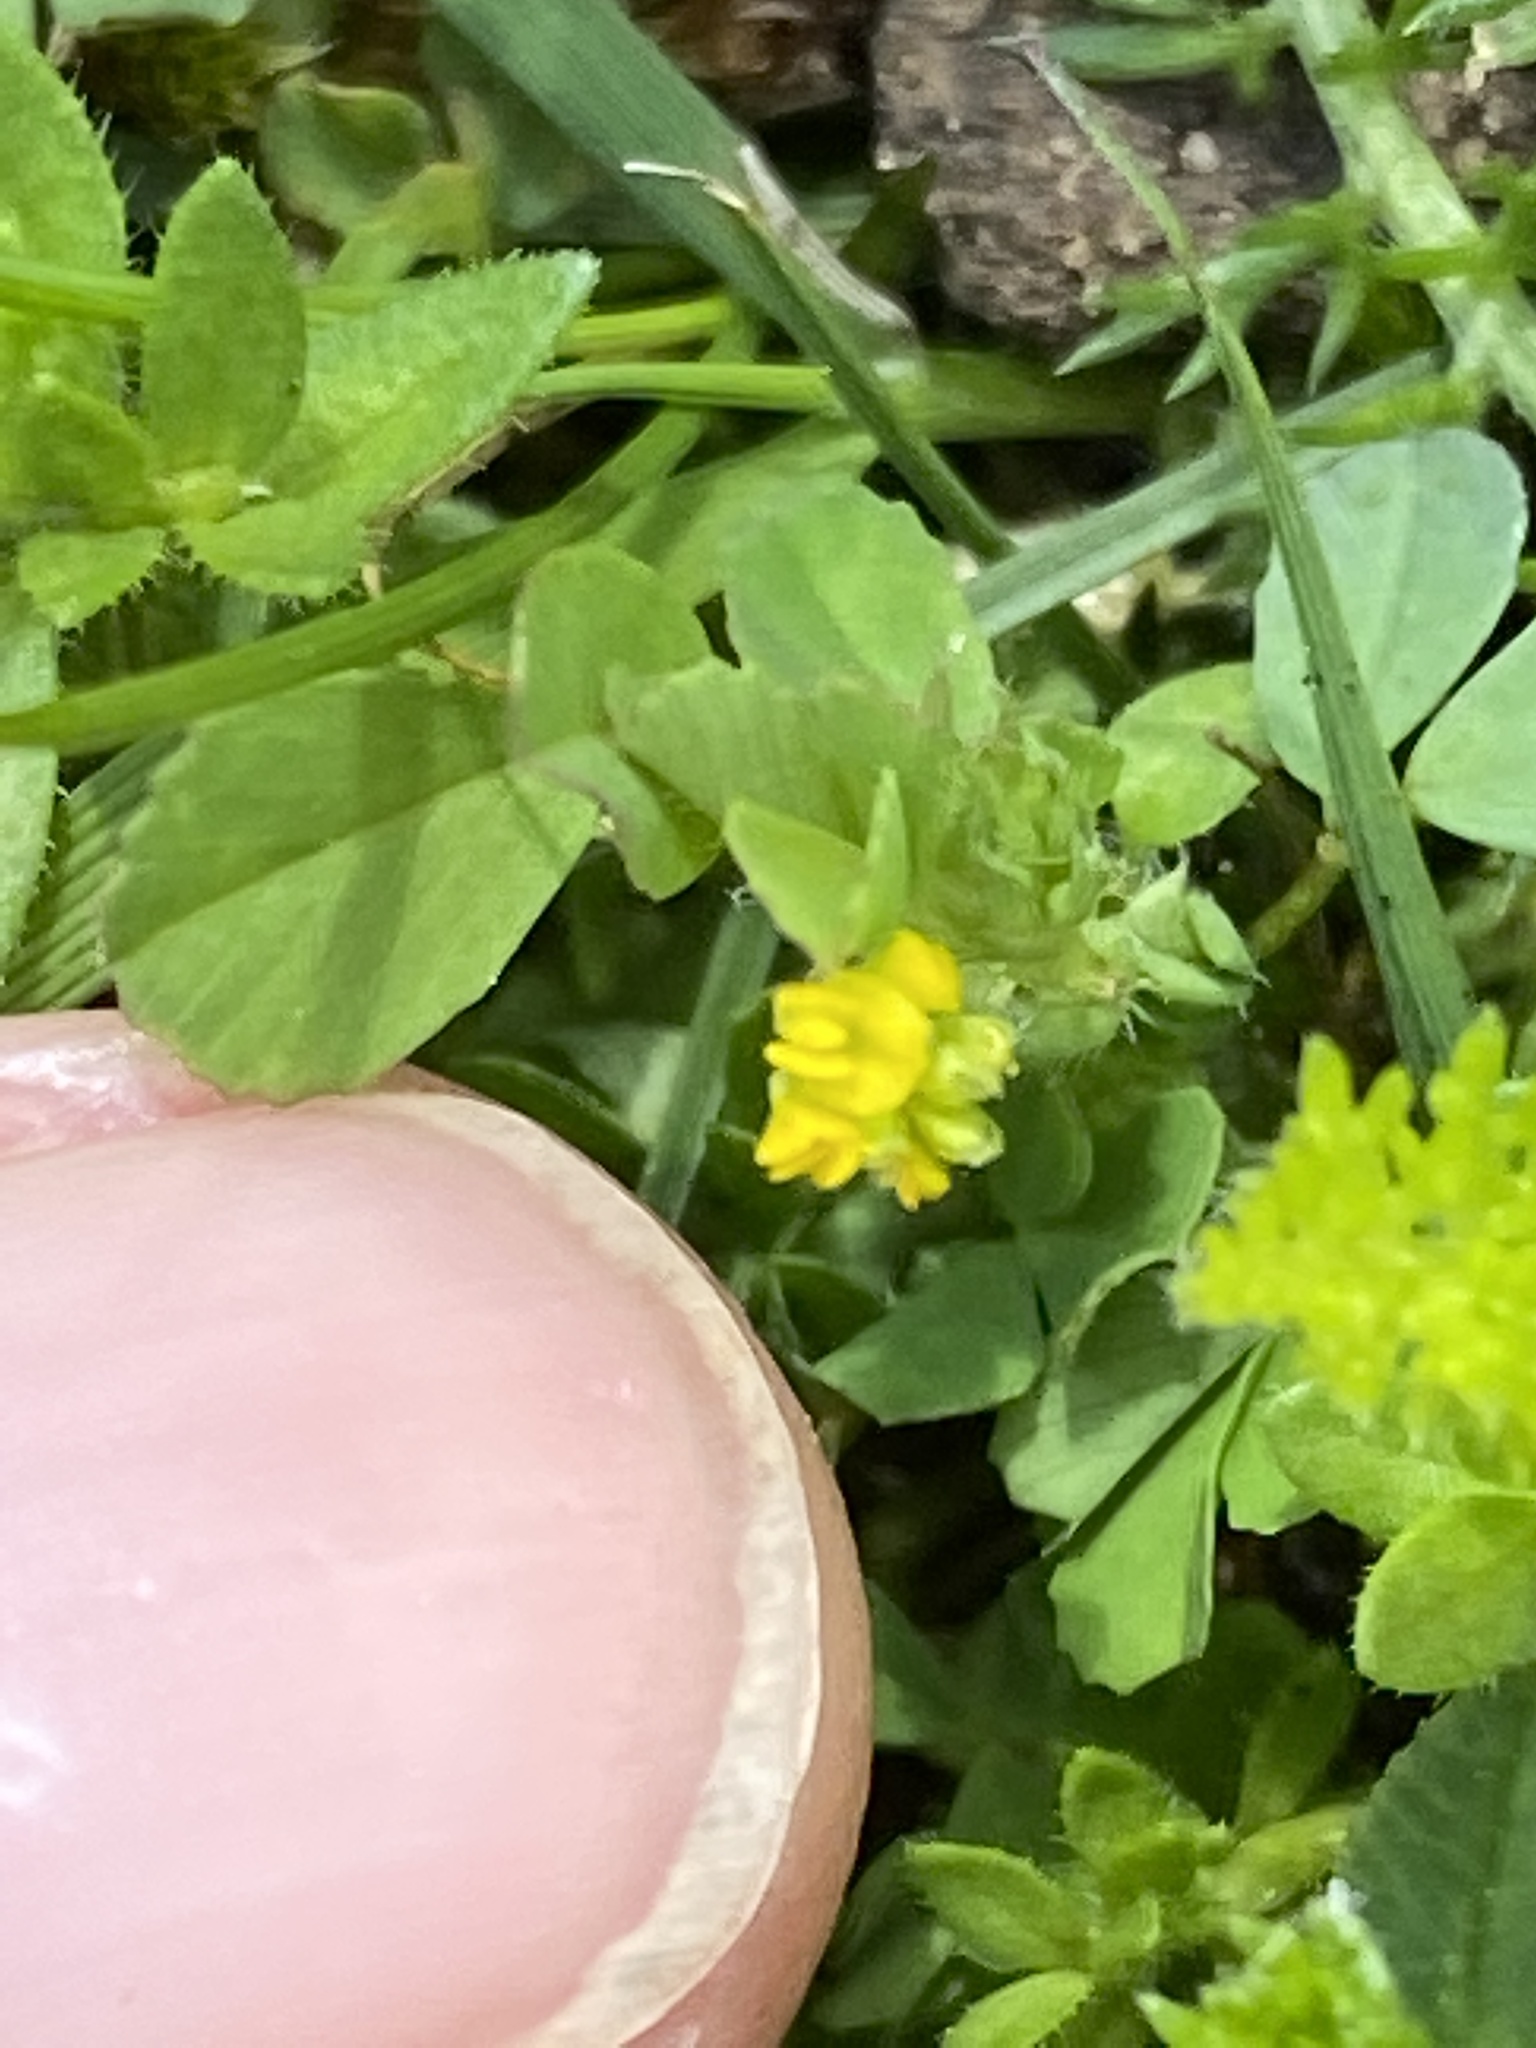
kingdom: Plantae
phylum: Tracheophyta
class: Magnoliopsida
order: Fabales
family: Fabaceae
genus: Trifolium
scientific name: Trifolium dubium
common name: Suckling clover
